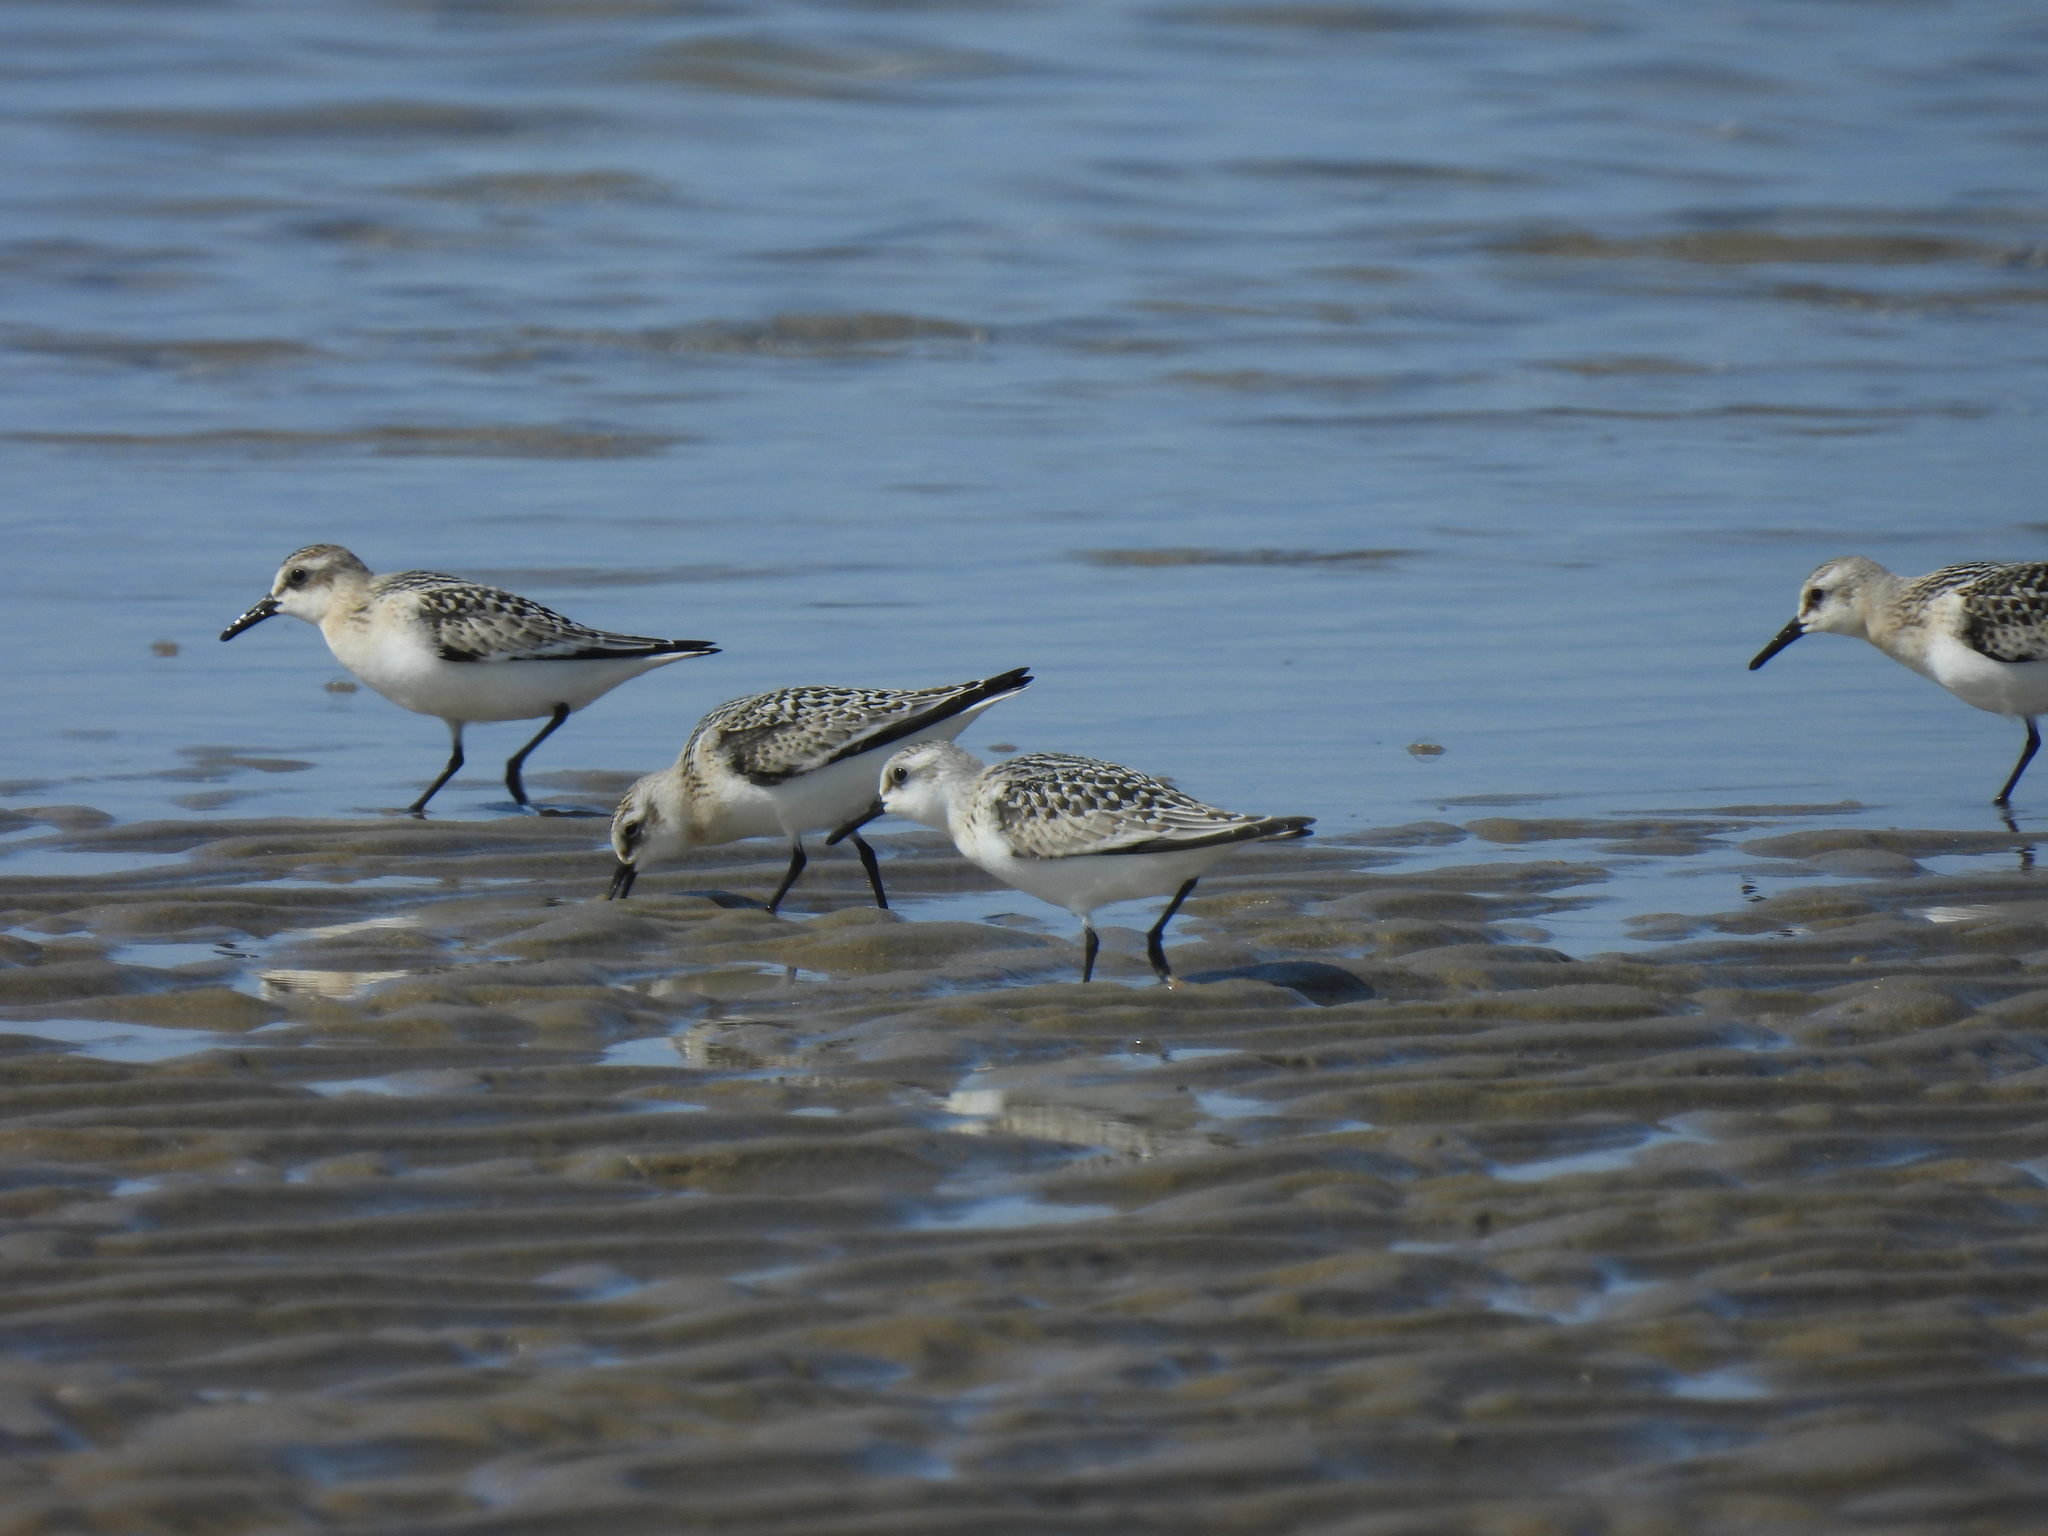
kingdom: Animalia
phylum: Chordata
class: Aves
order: Charadriiformes
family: Scolopacidae
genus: Calidris
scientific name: Calidris alba
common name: Sanderling
